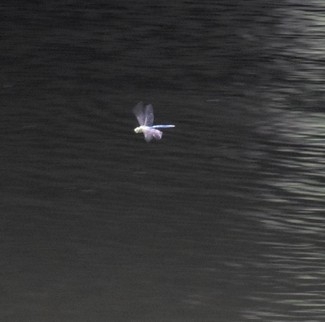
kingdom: Animalia
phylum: Arthropoda
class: Insecta
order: Odonata
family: Aeshnidae
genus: Anax
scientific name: Anax imperator
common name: Emperor dragonfly
